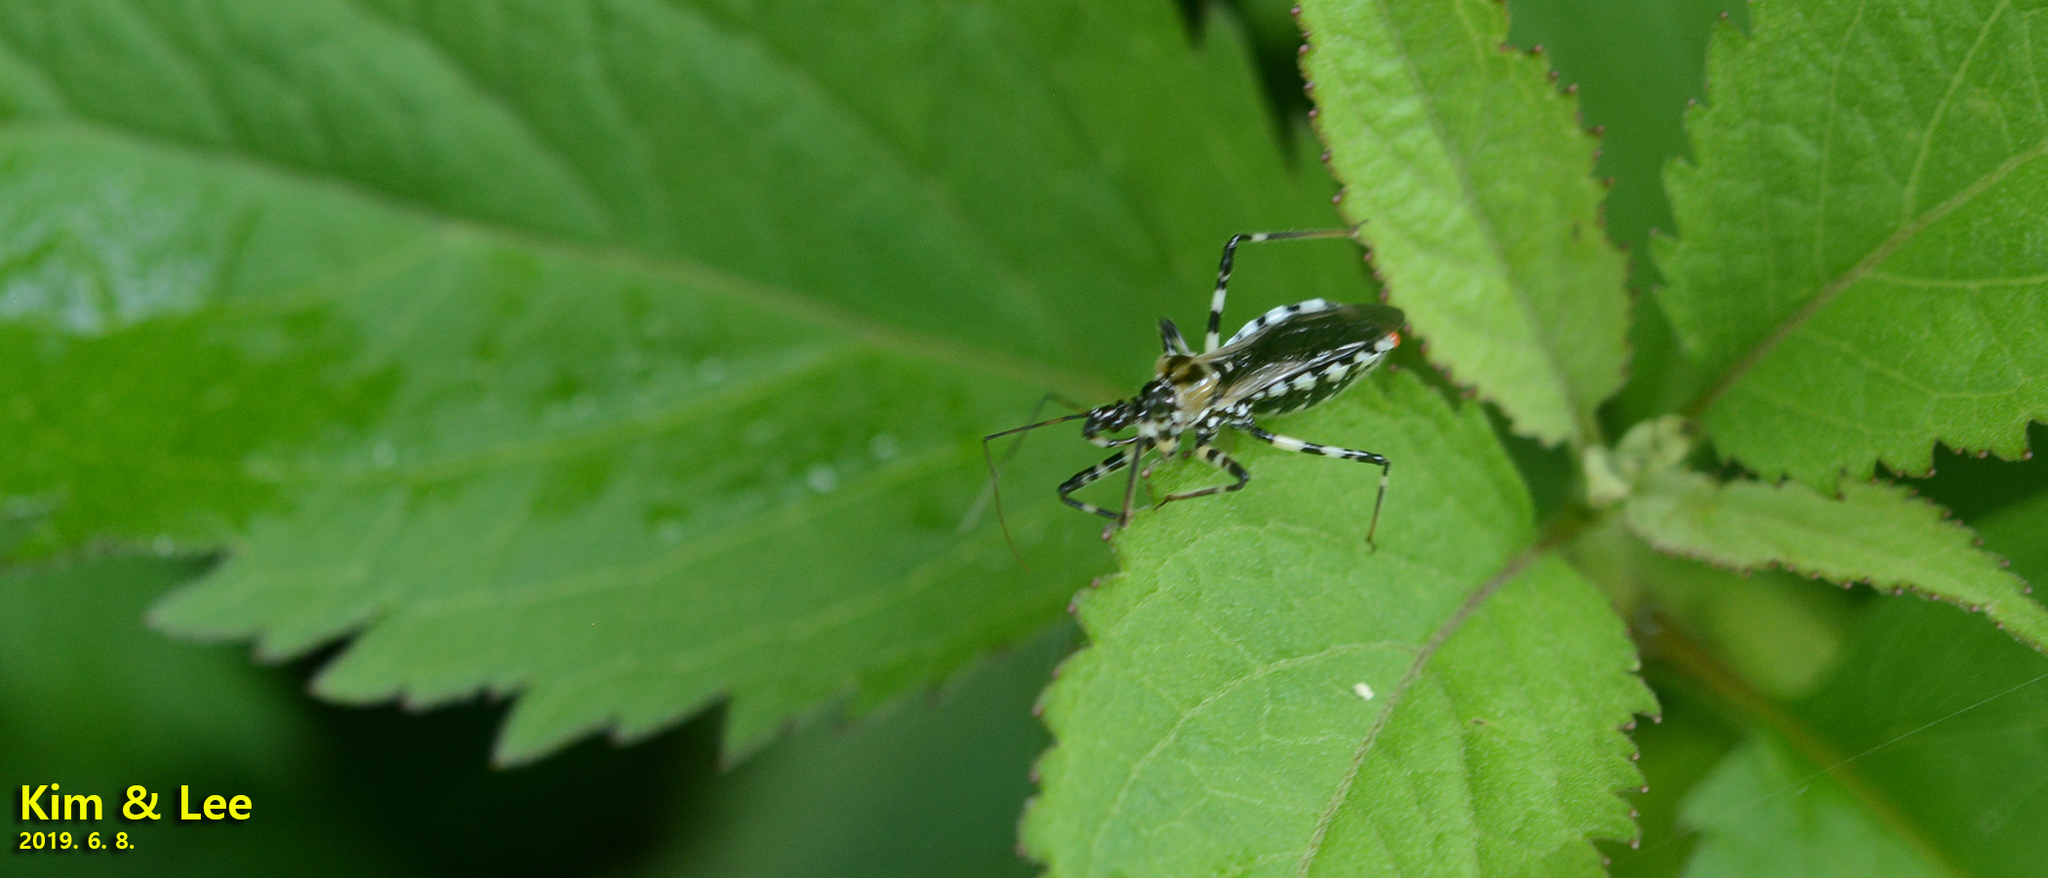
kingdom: Animalia
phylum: Arthropoda
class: Insecta
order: Hemiptera
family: Reduviidae
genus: Sphedanolestes
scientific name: Sphedanolestes impressicollis
